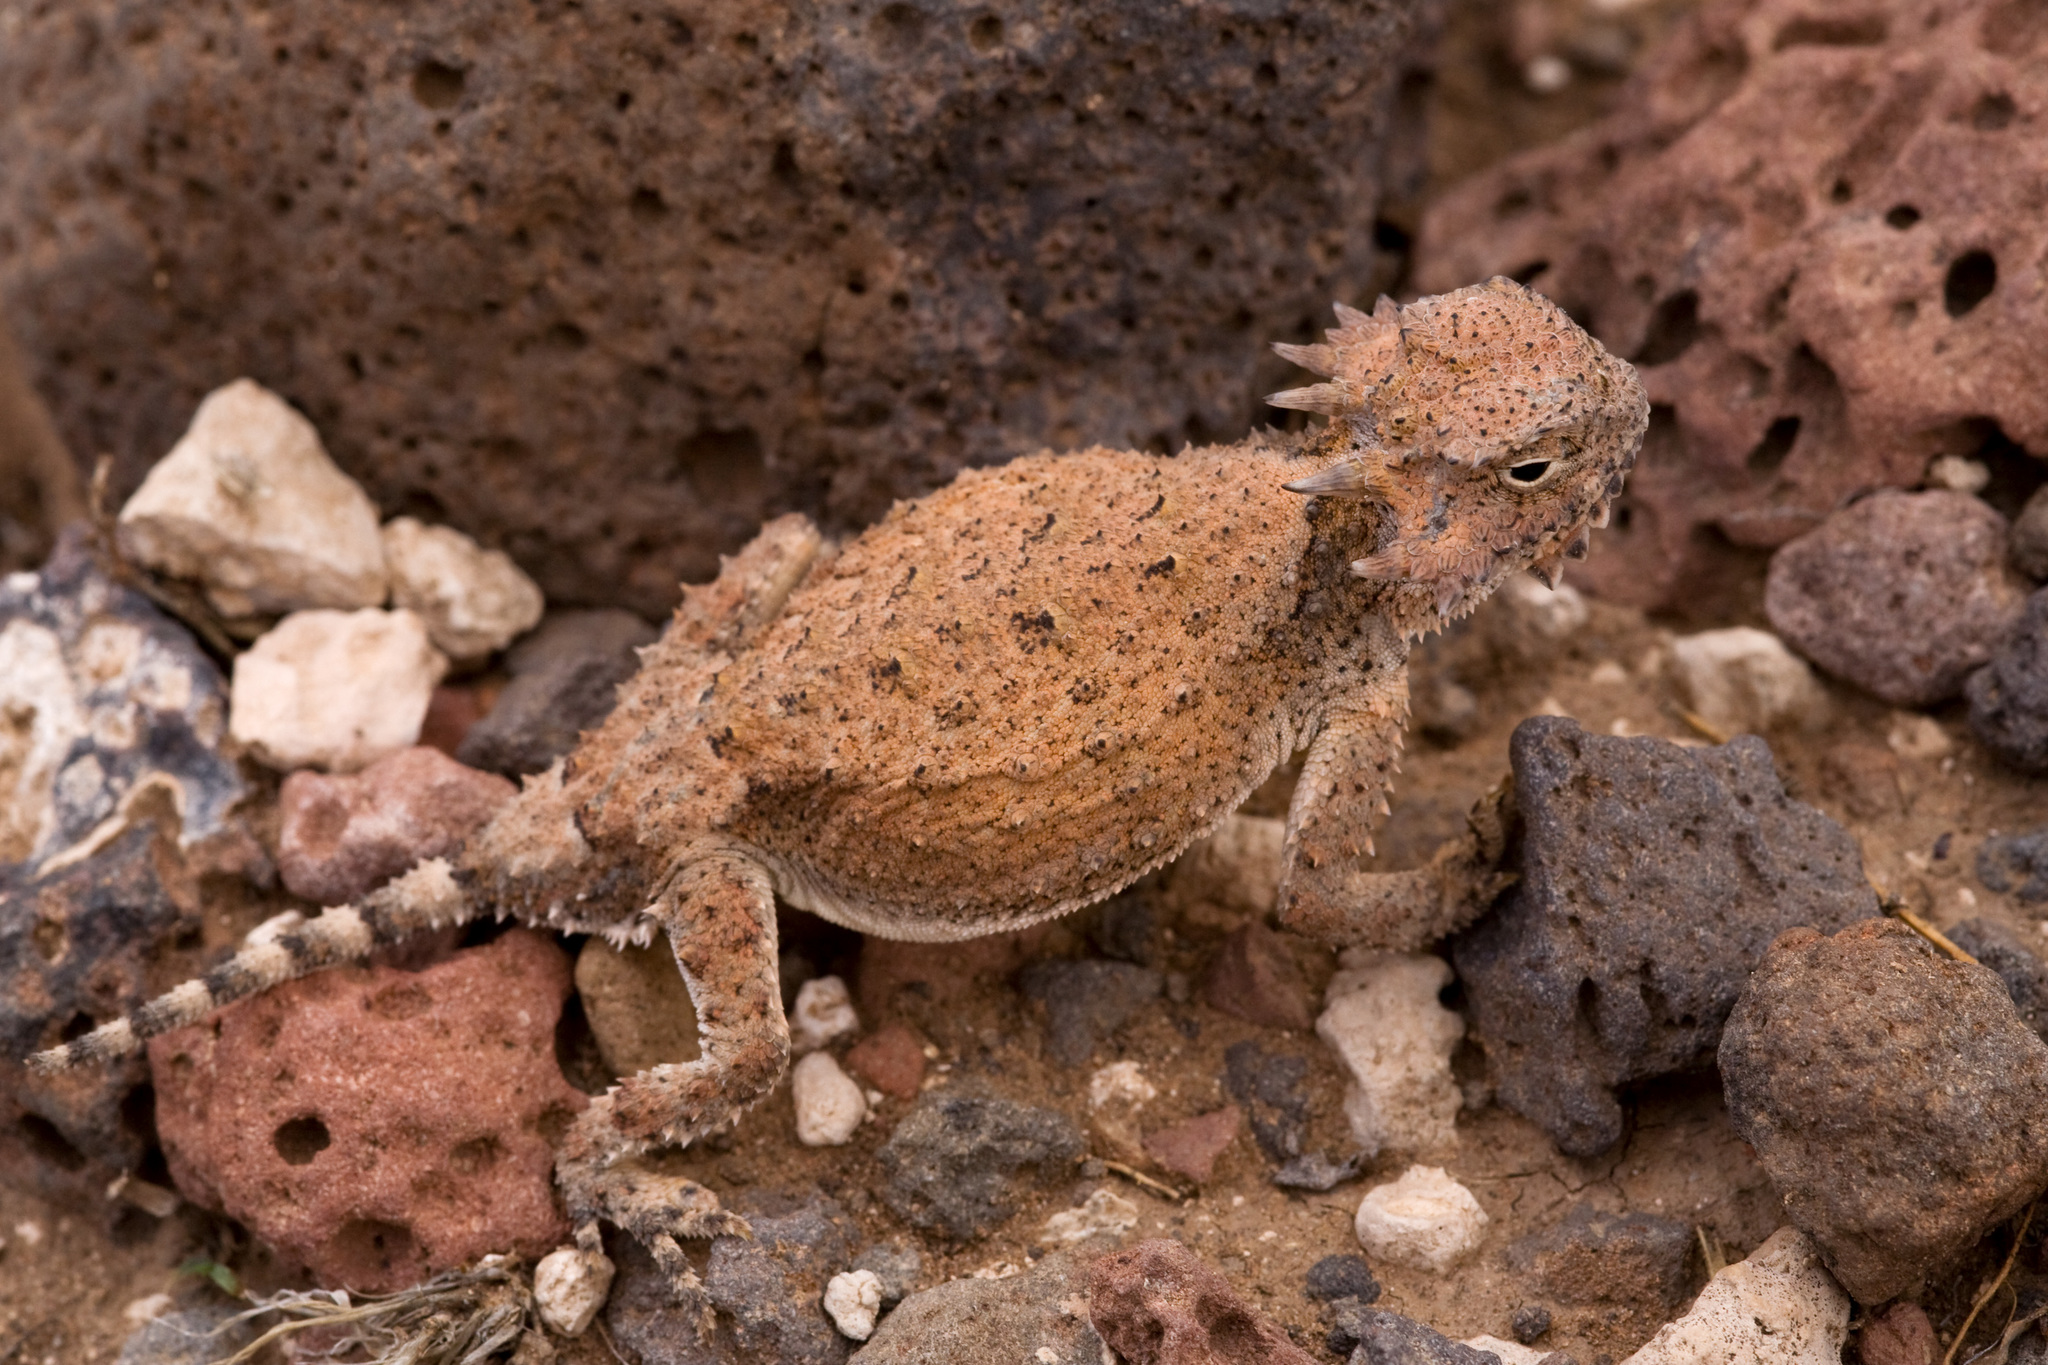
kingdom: Animalia
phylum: Chordata
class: Squamata
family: Phrynosomatidae
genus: Phrynosoma
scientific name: Phrynosoma modestum
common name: Roundtail horned lizard
